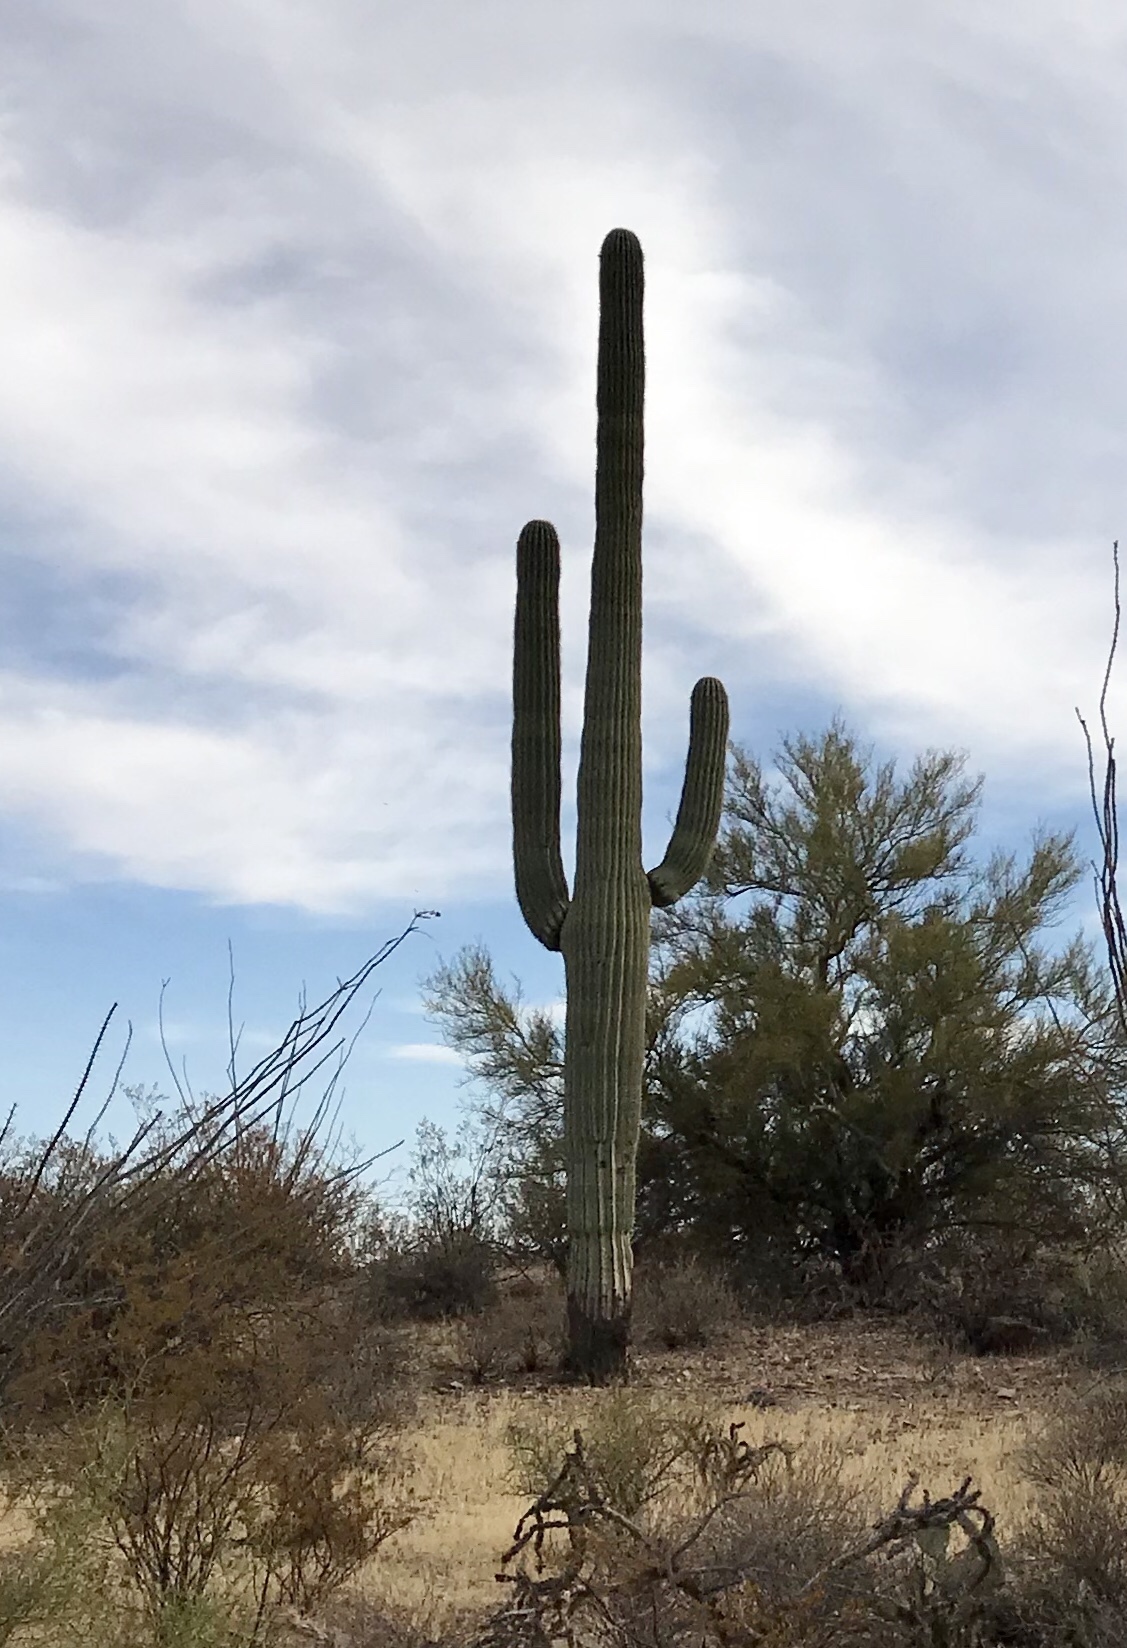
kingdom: Plantae
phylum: Tracheophyta
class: Magnoliopsida
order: Caryophyllales
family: Cactaceae
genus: Carnegiea
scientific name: Carnegiea gigantea
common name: Saguaro
